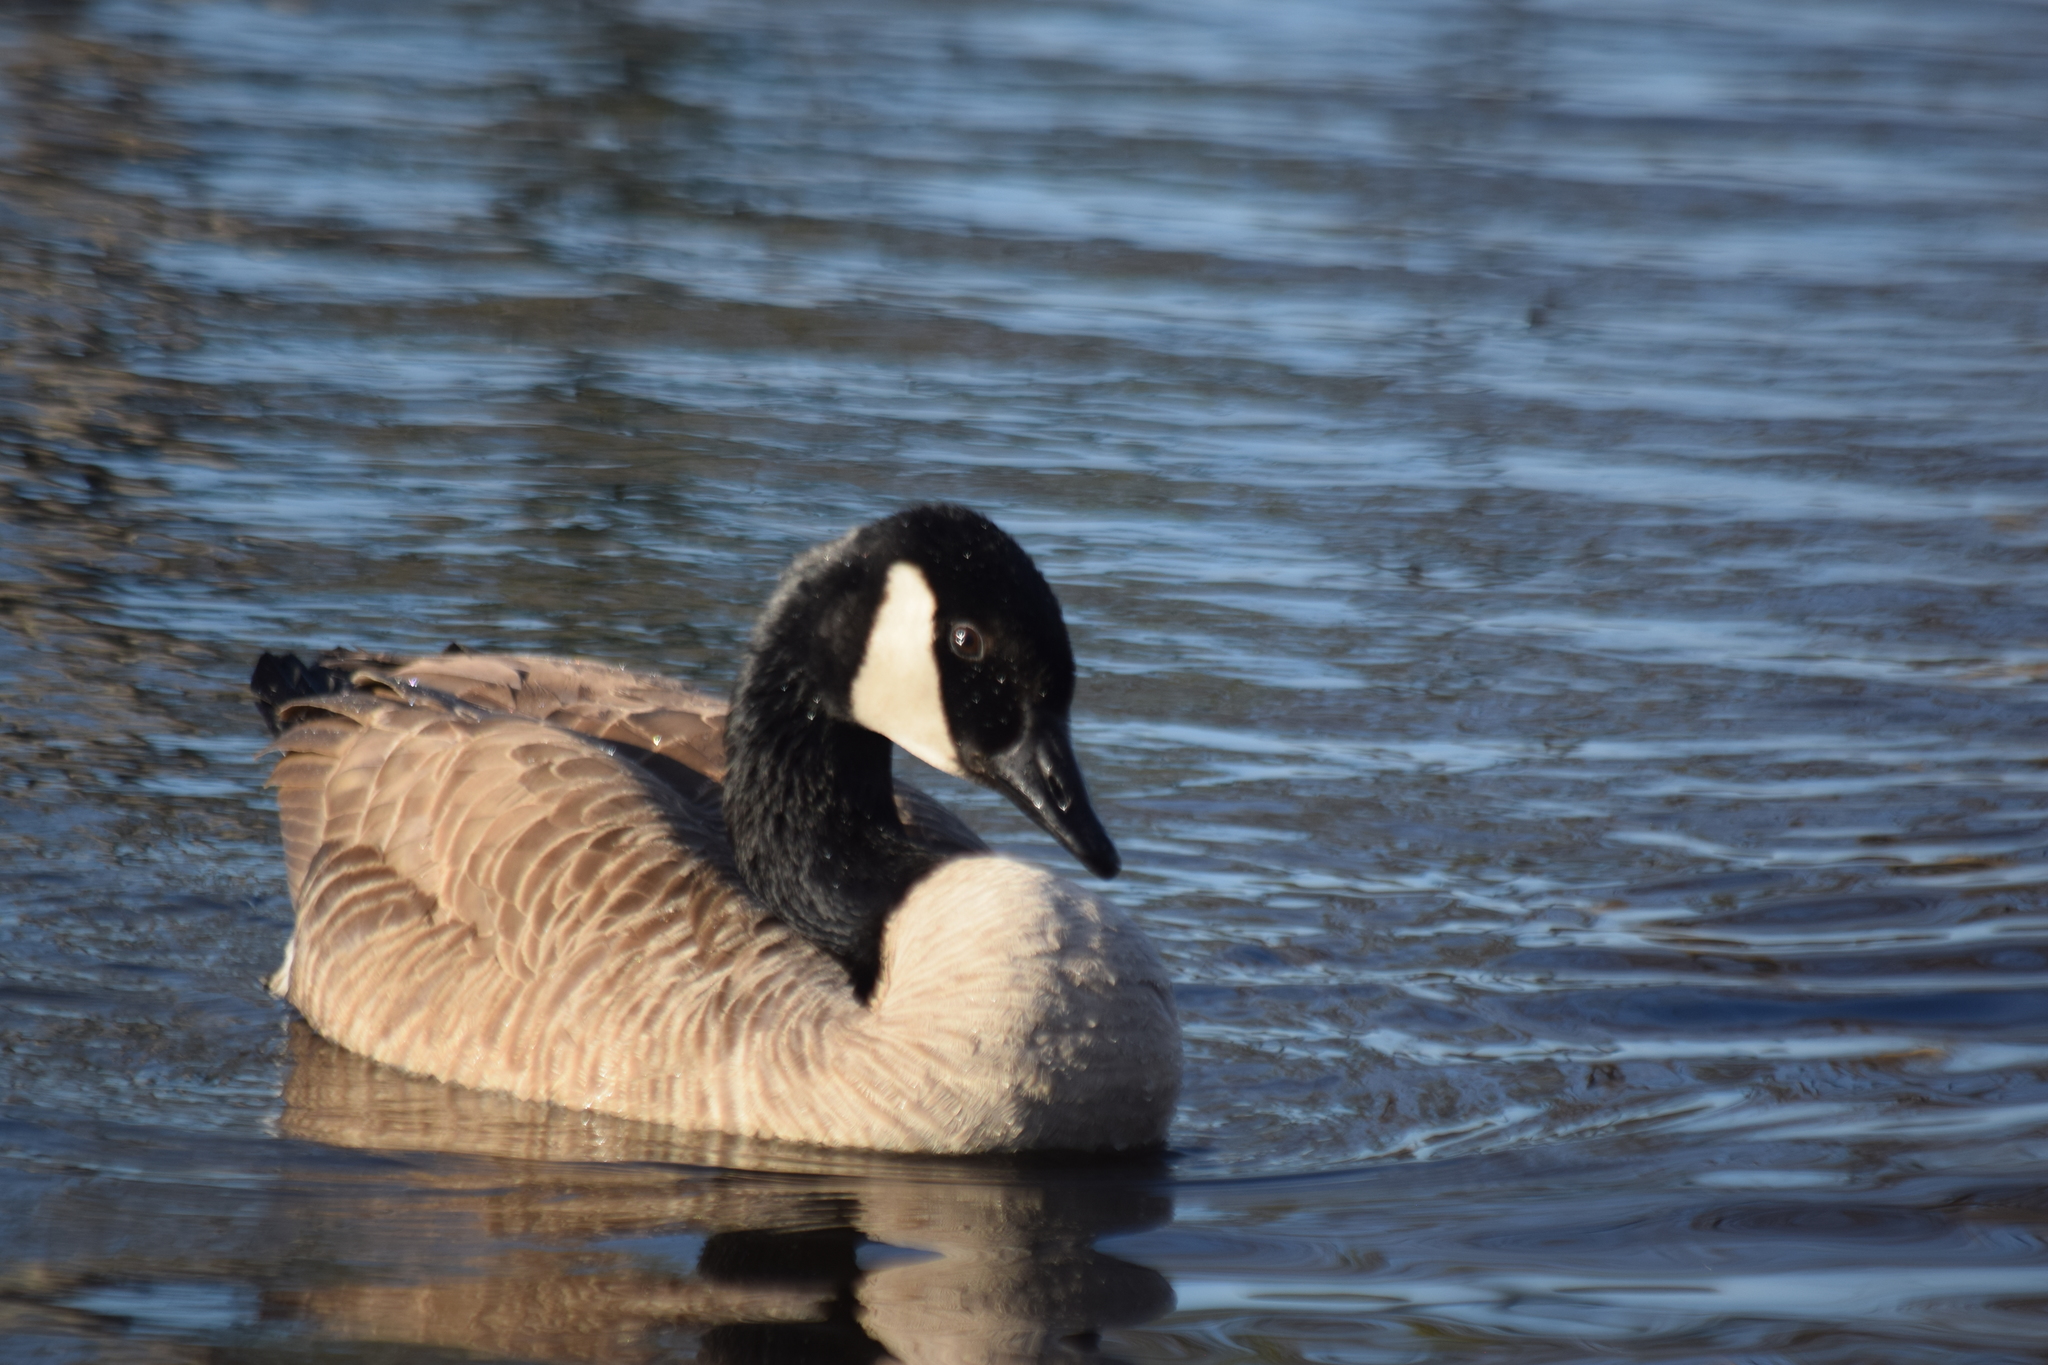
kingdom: Animalia
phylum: Chordata
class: Aves
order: Anseriformes
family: Anatidae
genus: Branta
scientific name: Branta canadensis
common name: Canada goose
